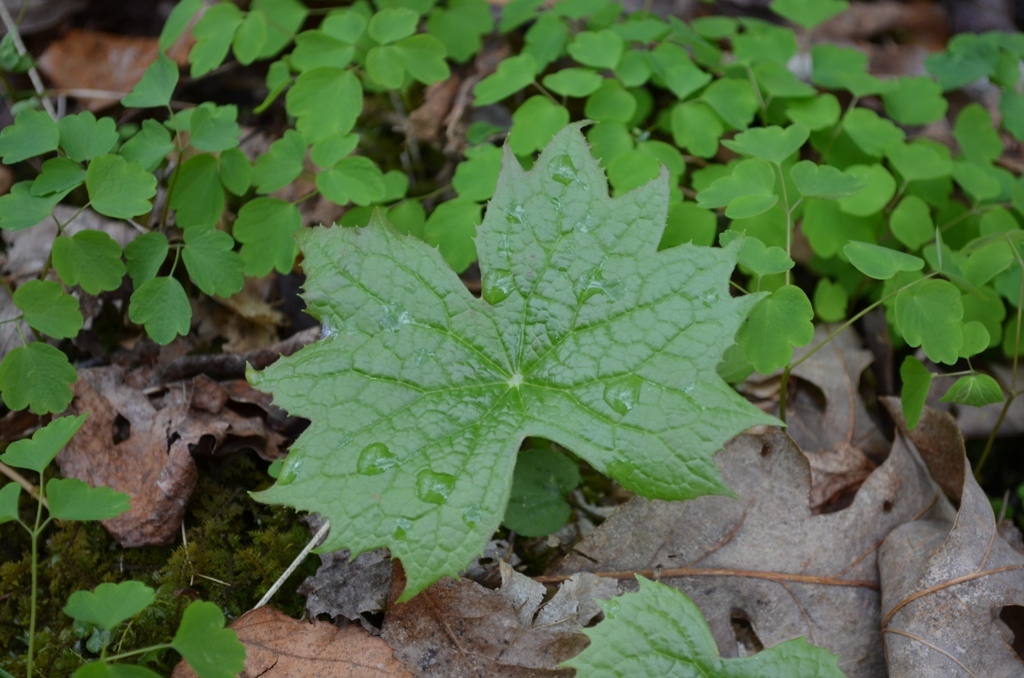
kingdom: Plantae
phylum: Tracheophyta
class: Magnoliopsida
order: Ranunculales
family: Berberidaceae
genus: Diphylleia
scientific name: Diphylleia cymosa
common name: Umbrella-leaf
